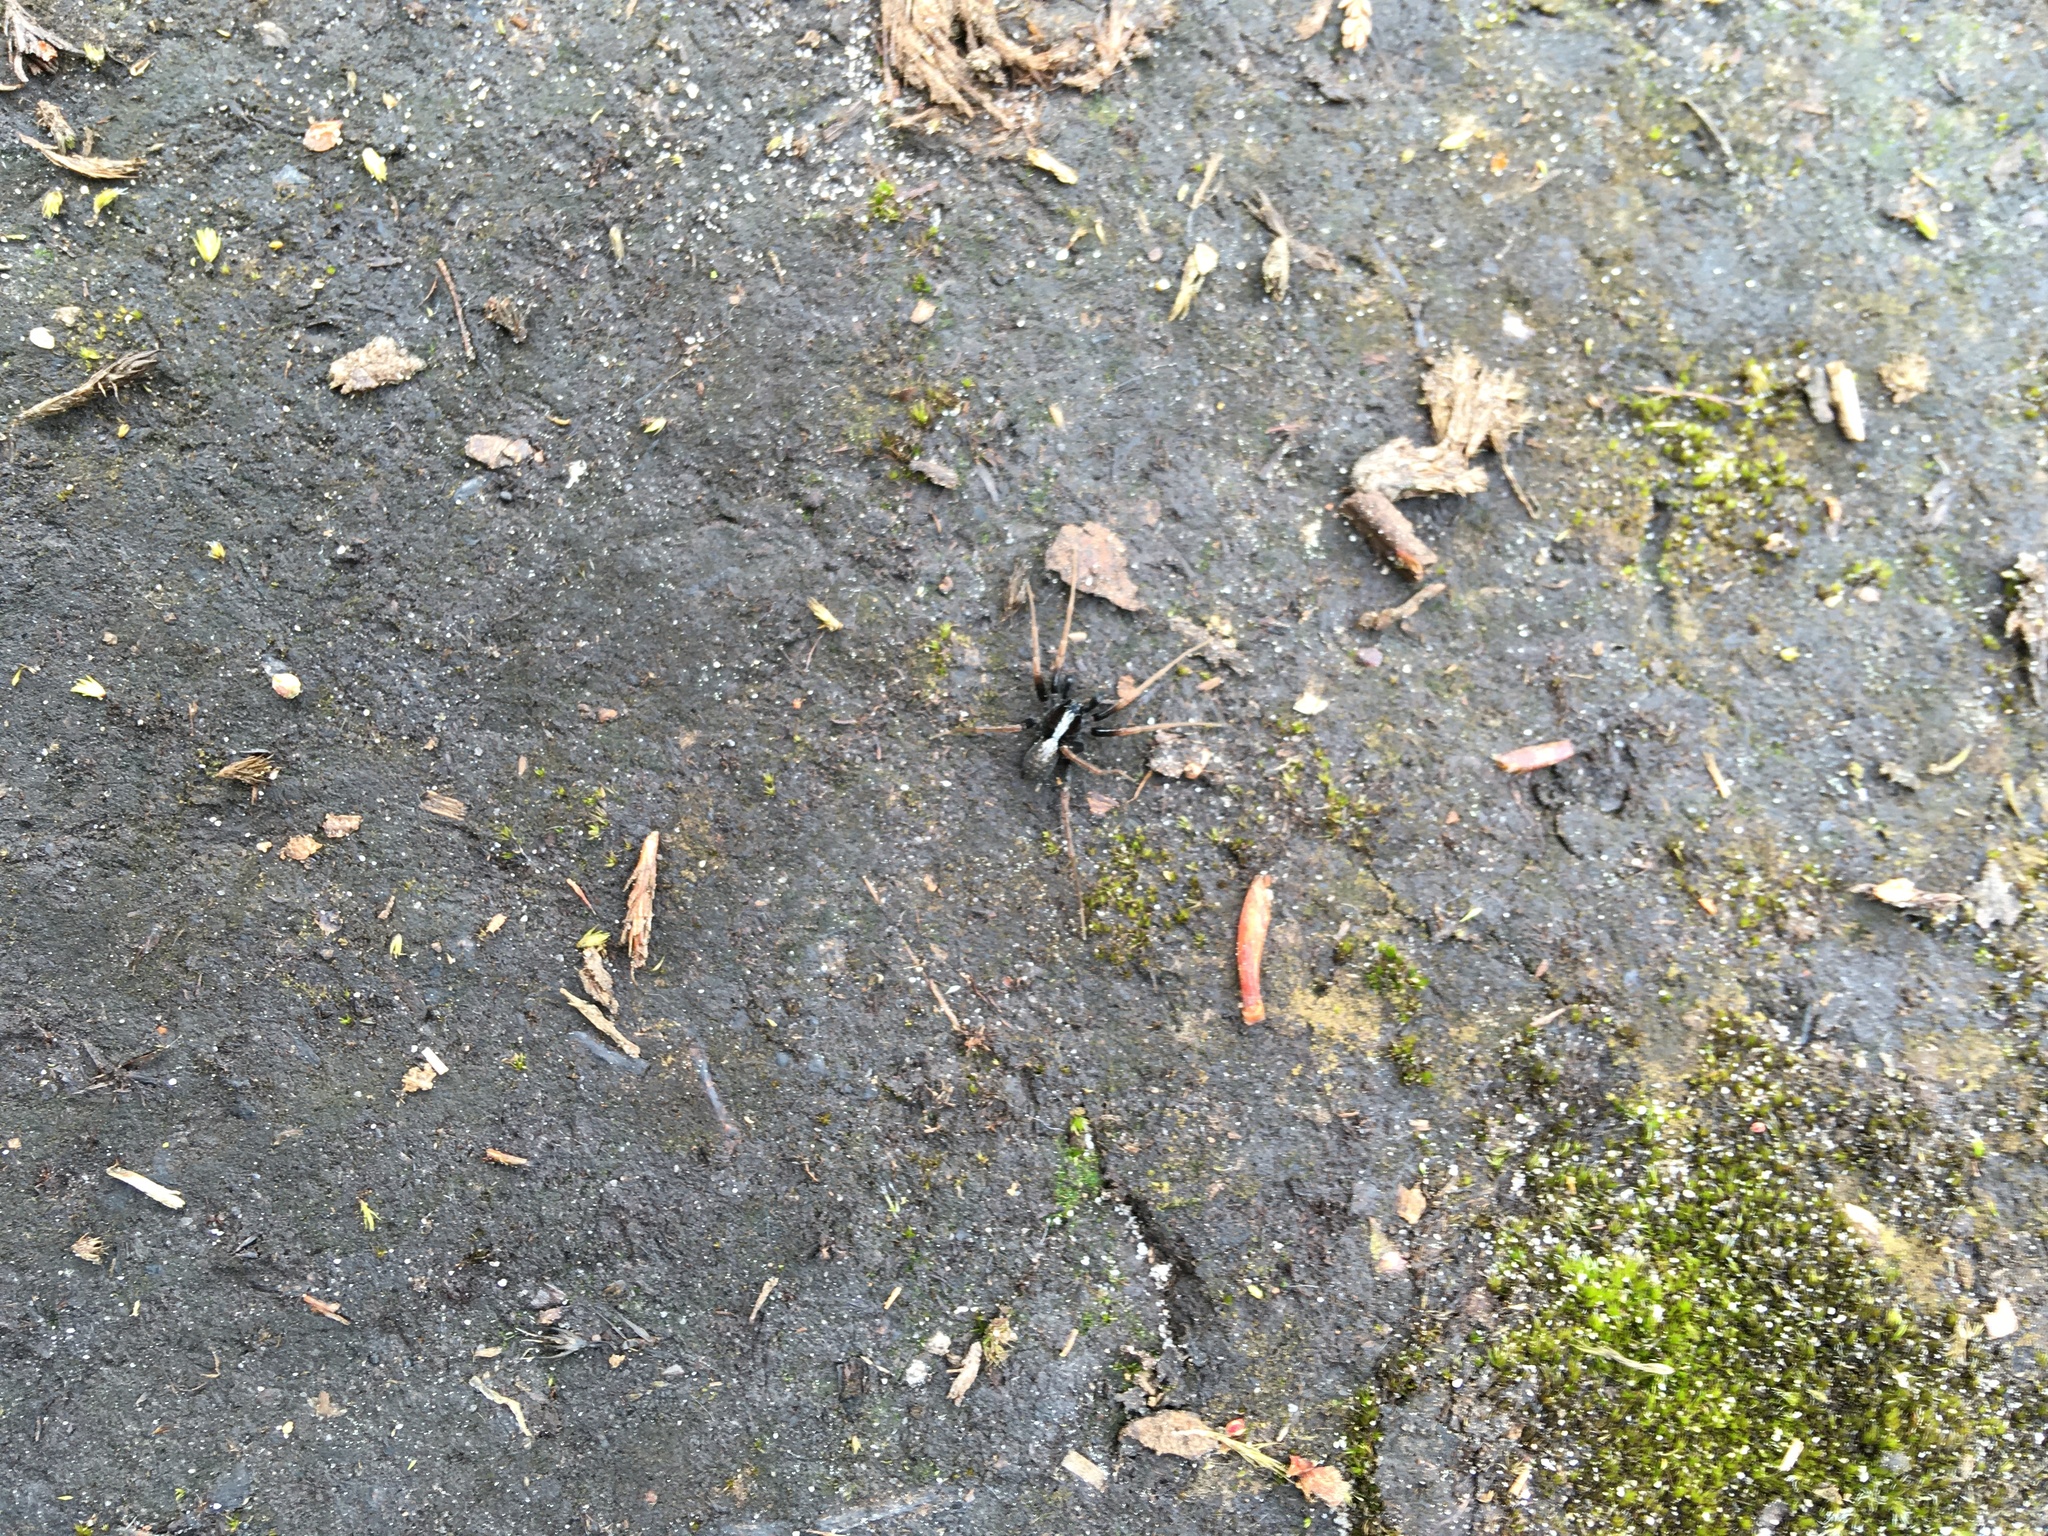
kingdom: Animalia
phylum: Arthropoda
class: Arachnida
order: Araneae
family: Lycosidae
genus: Pardosa
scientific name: Pardosa
